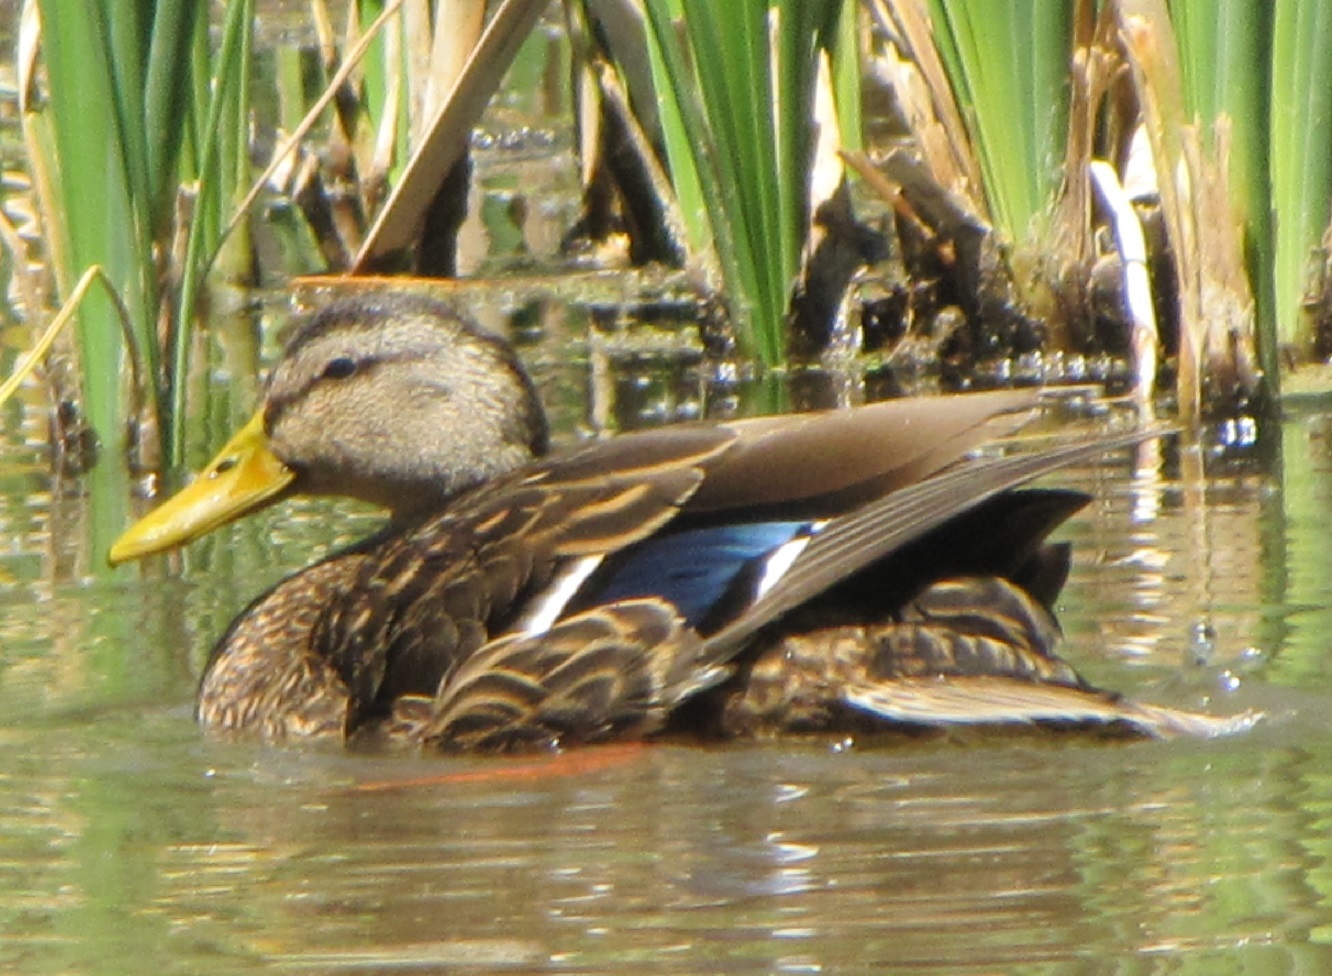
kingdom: Animalia
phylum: Chordata
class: Aves
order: Anseriformes
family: Anatidae
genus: Anas
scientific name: Anas diazi
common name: Mexican duck
